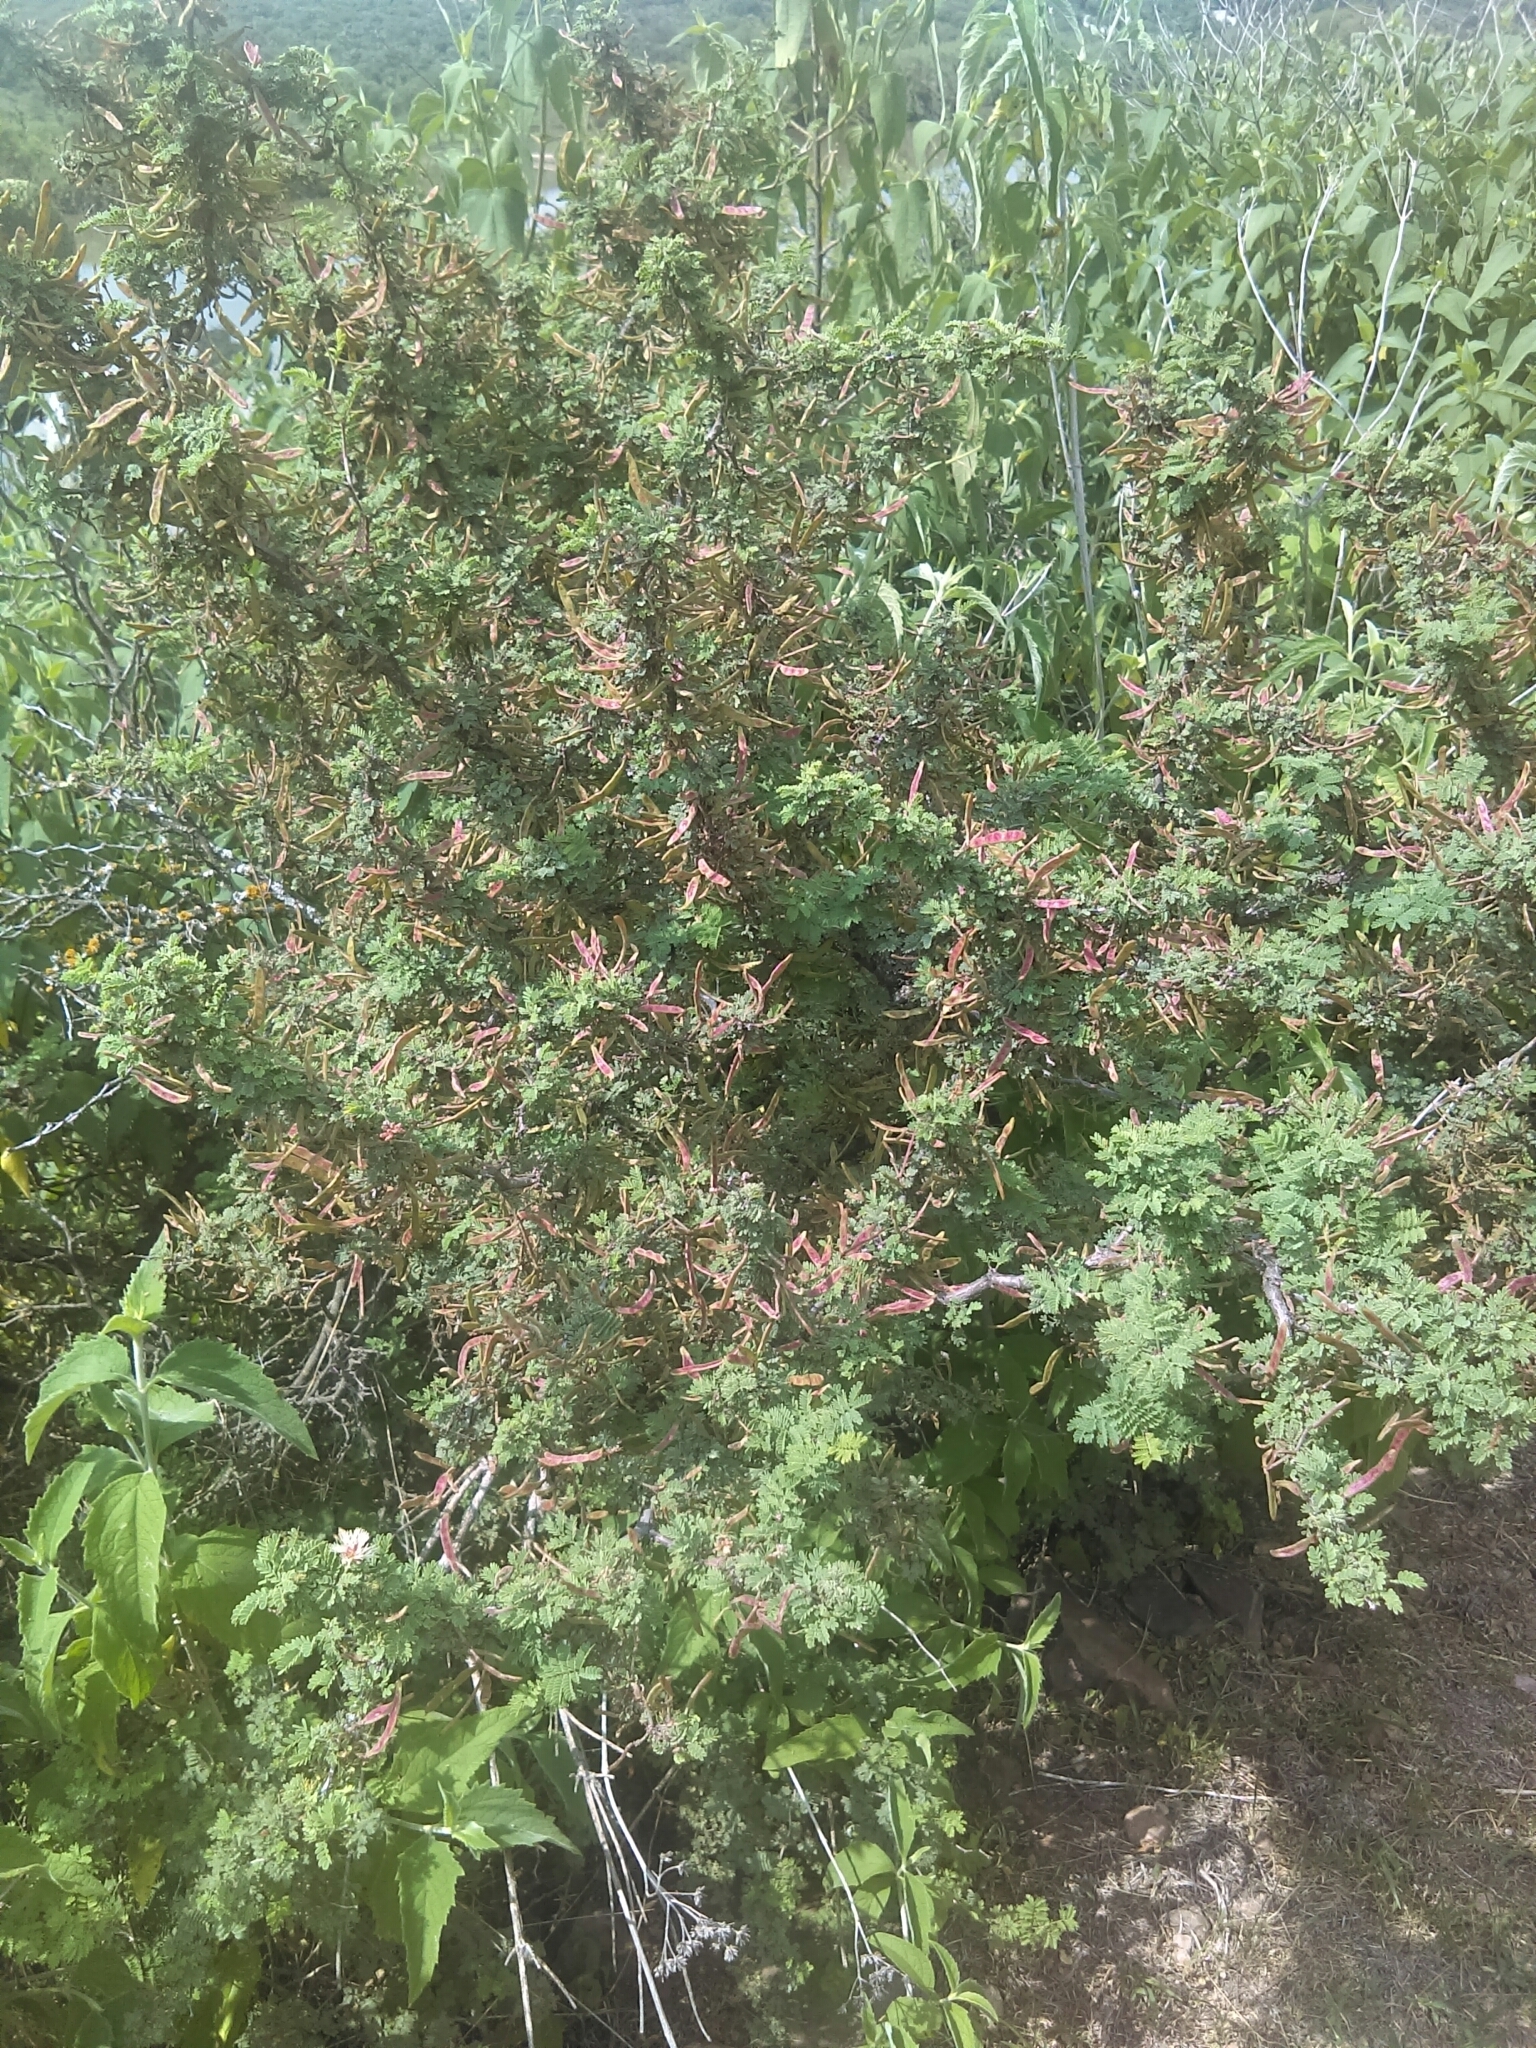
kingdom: Plantae
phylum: Tracheophyta
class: Magnoliopsida
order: Fabales
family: Fabaceae
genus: Mimosa
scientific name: Mimosa aculeaticarpa
